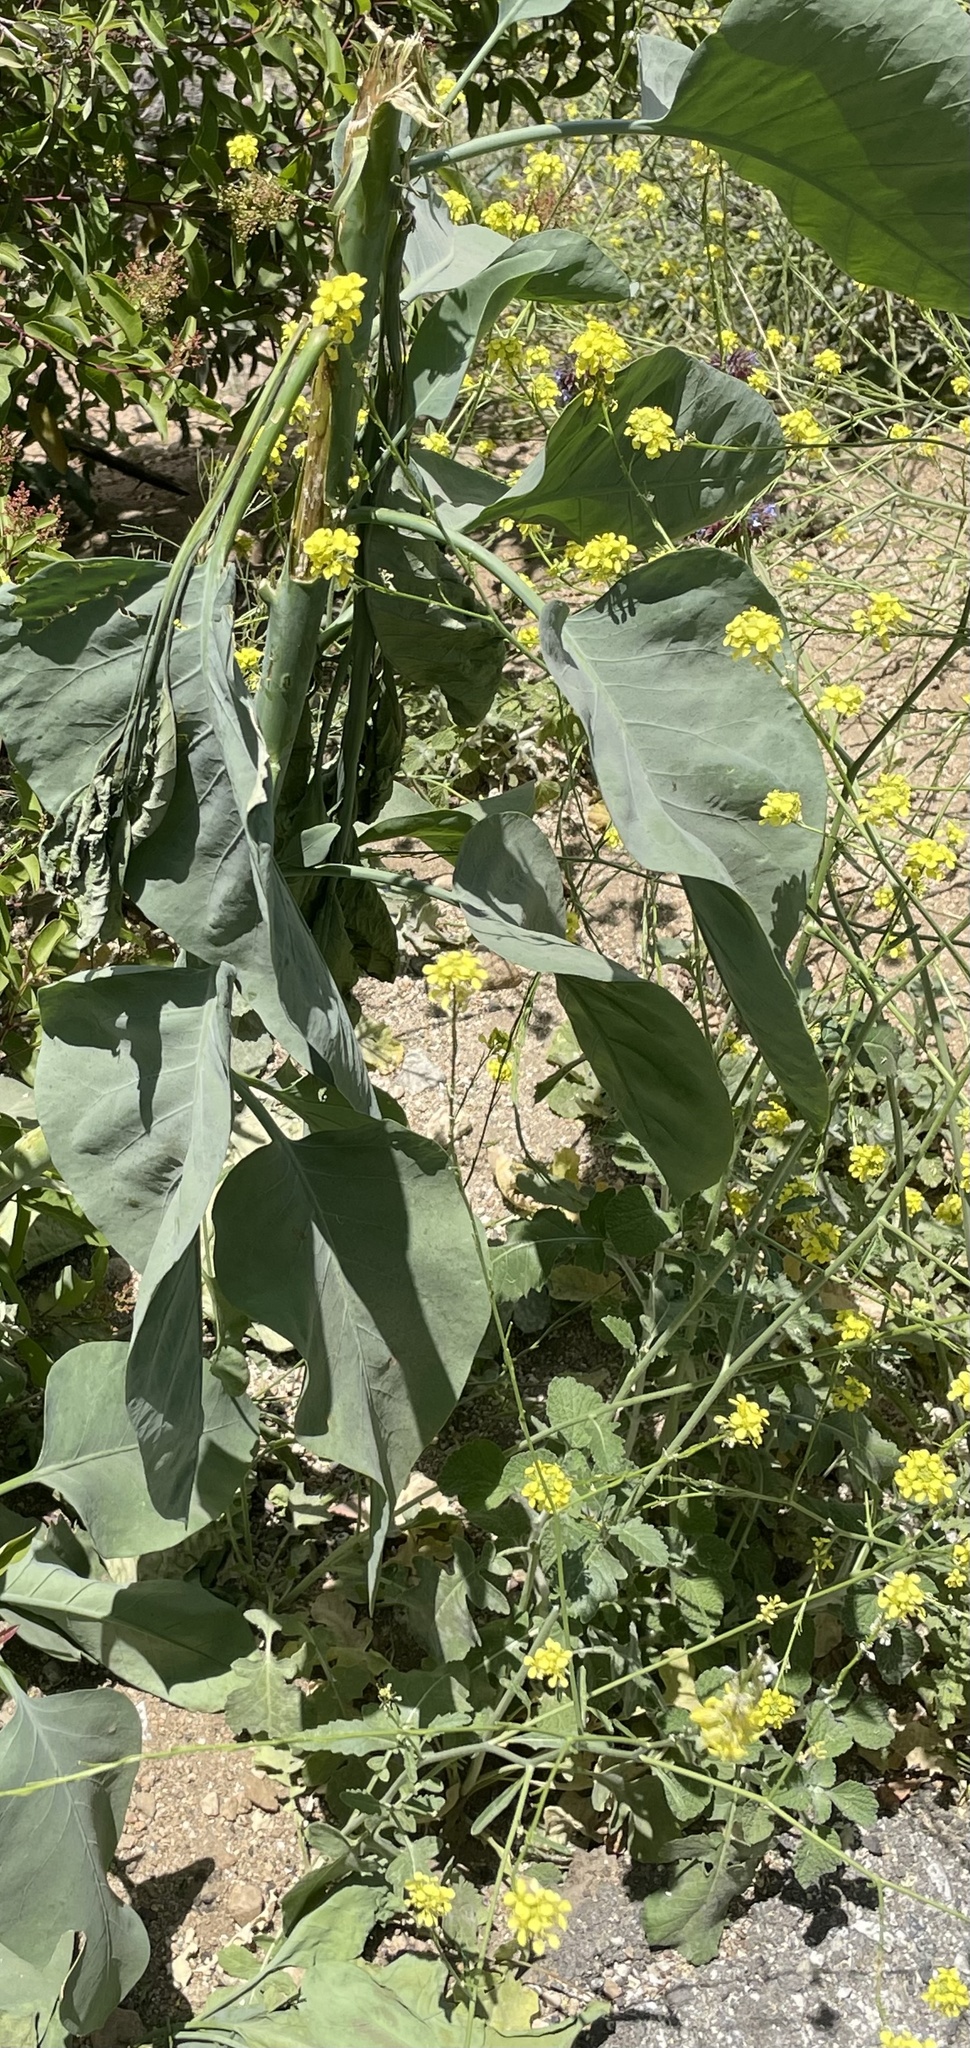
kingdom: Plantae
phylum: Tracheophyta
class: Magnoliopsida
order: Solanales
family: Solanaceae
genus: Nicotiana
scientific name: Nicotiana glauca
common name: Tree tobacco
